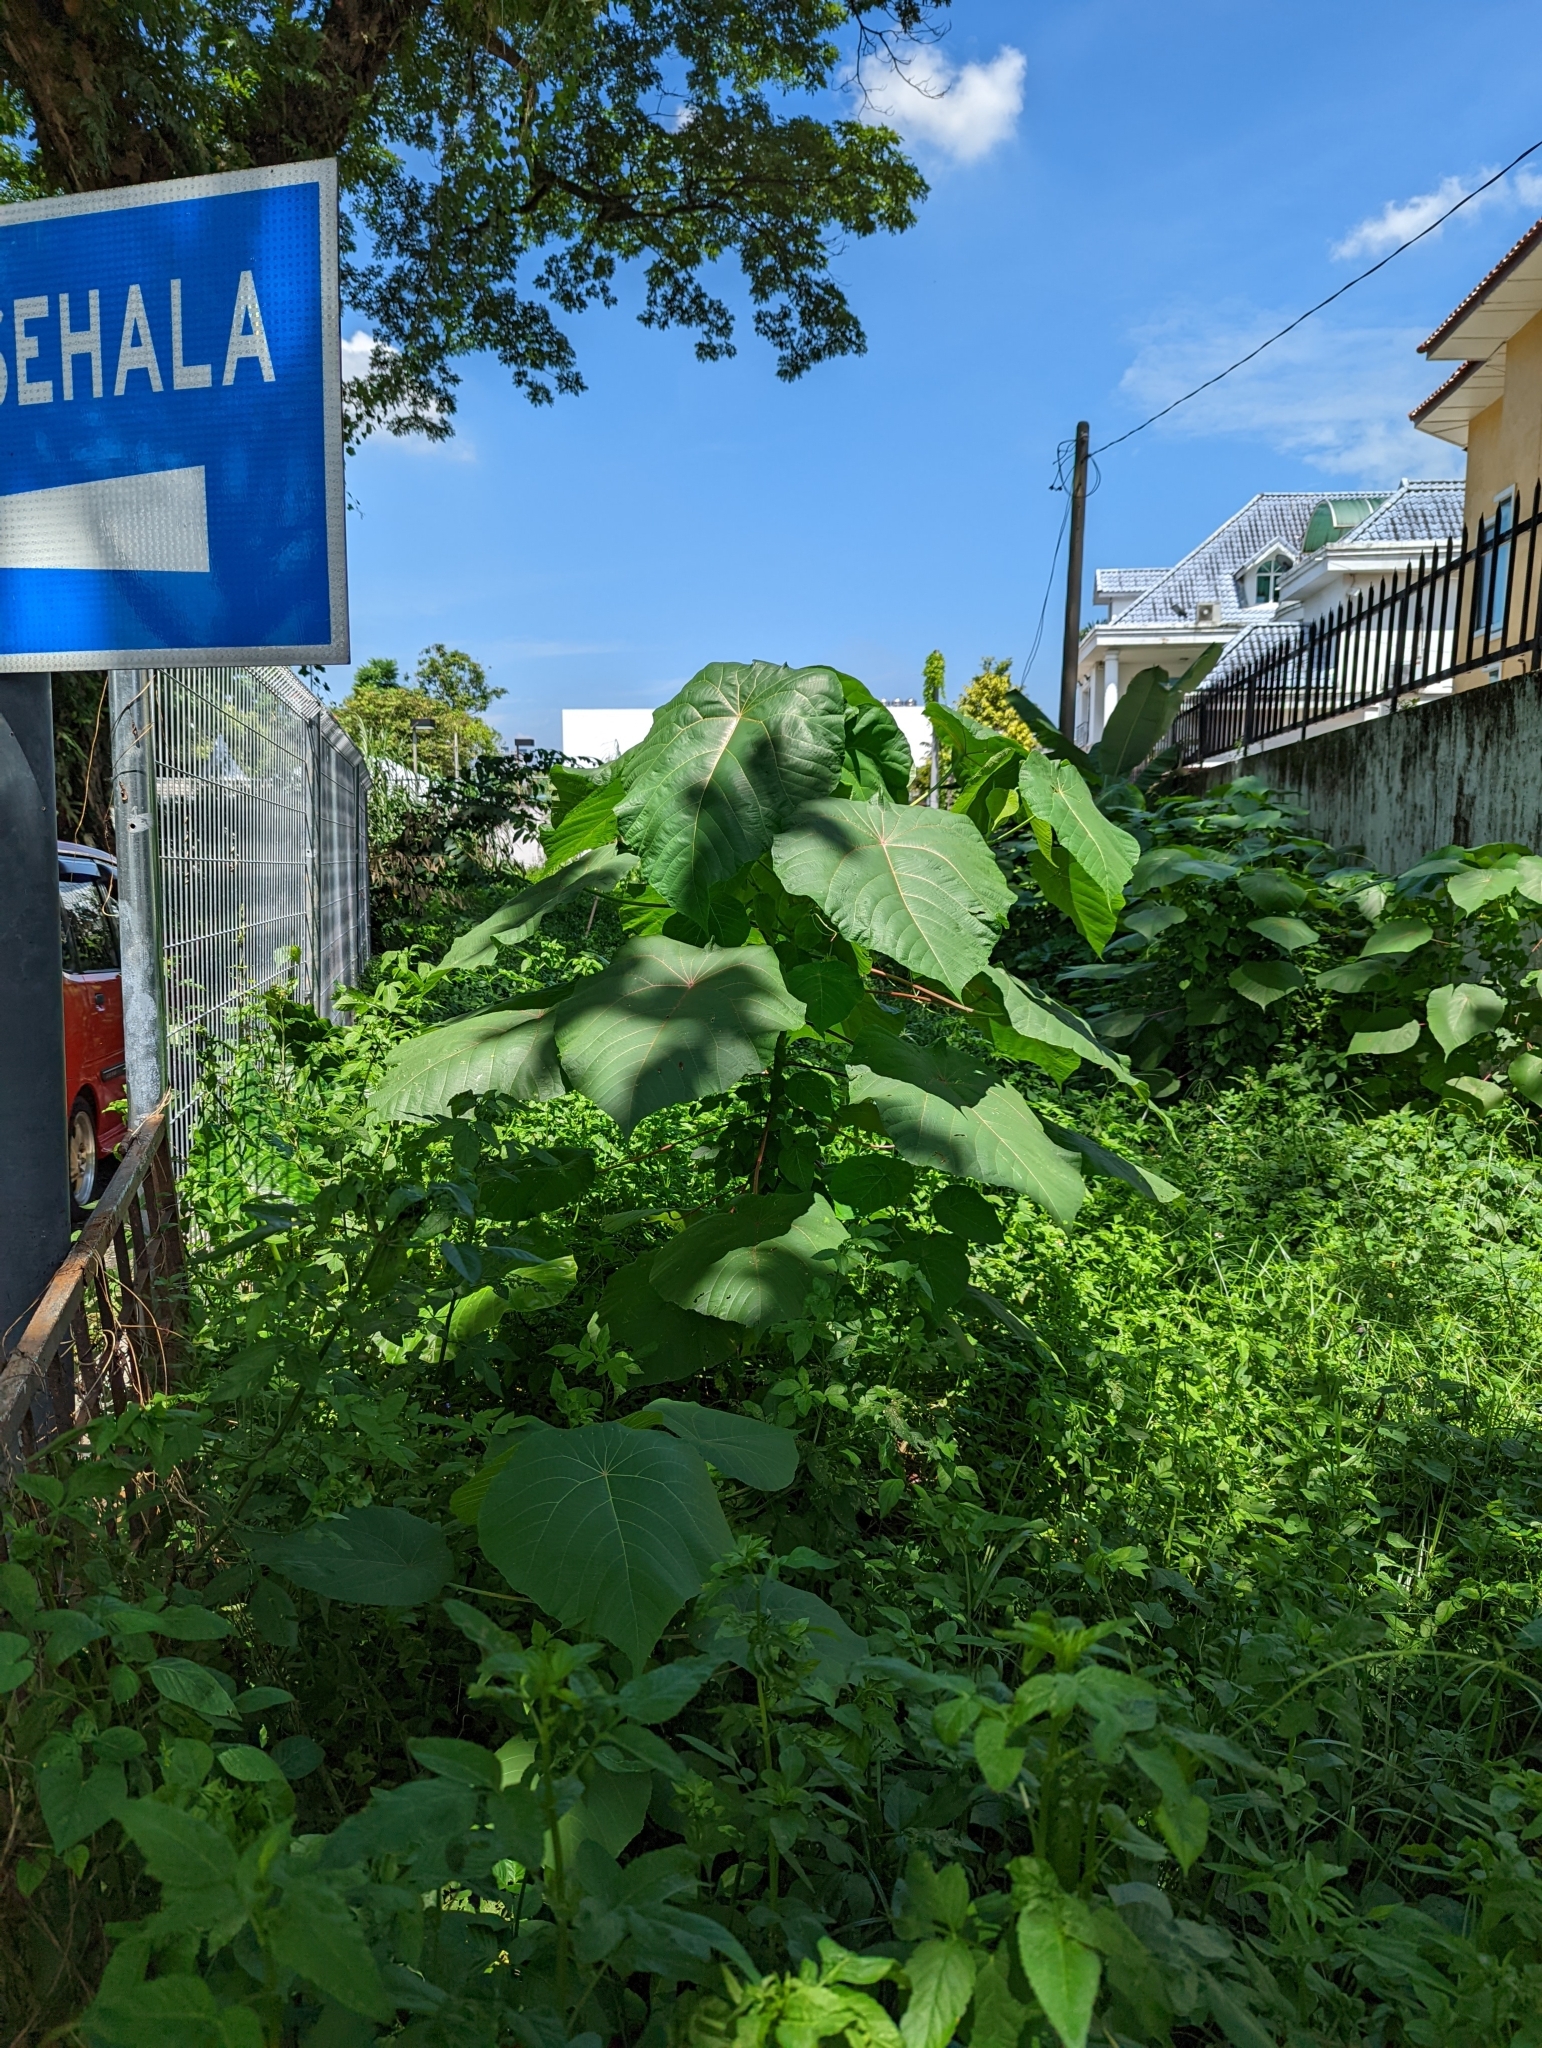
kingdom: Plantae
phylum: Tracheophyta
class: Magnoliopsida
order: Malpighiales
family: Euphorbiaceae
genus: Macaranga
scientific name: Macaranga tanarius
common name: Parasol leaf tree
